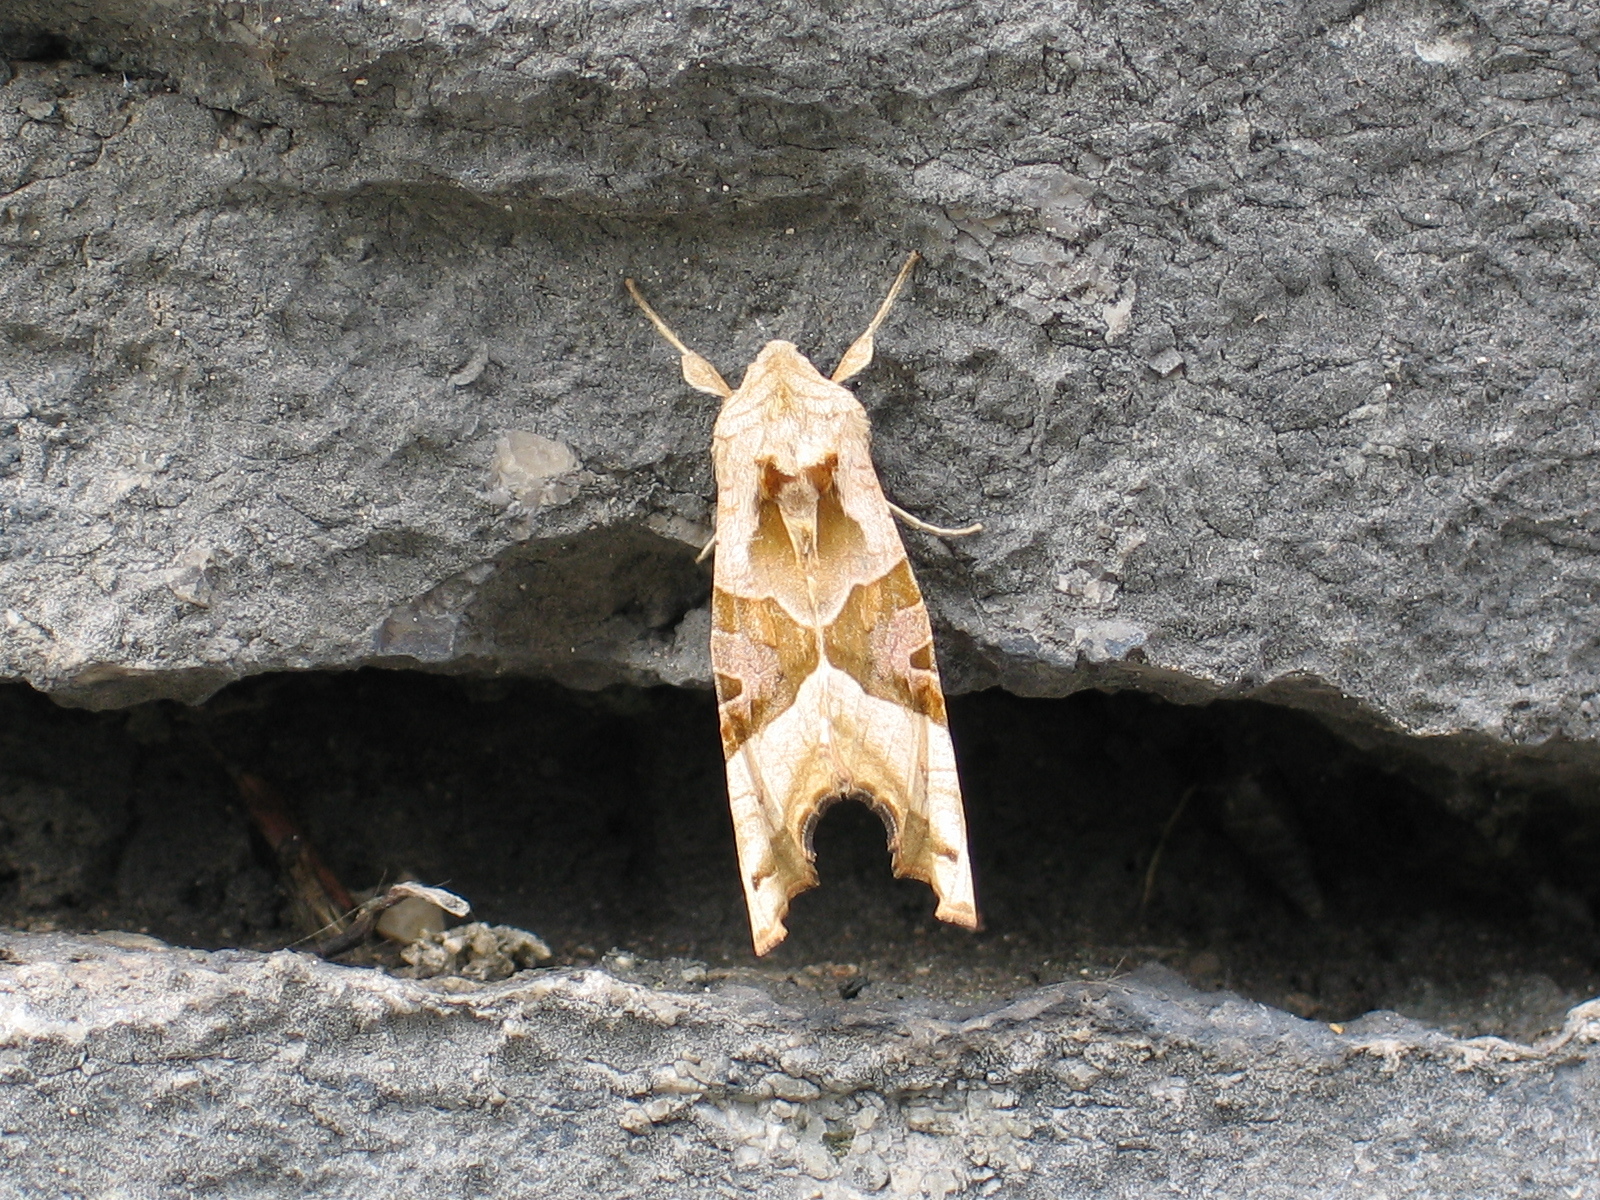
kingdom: Animalia
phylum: Arthropoda
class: Insecta
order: Lepidoptera
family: Noctuidae
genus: Phlogophora
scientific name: Phlogophora meticulosa
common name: Angle shades
